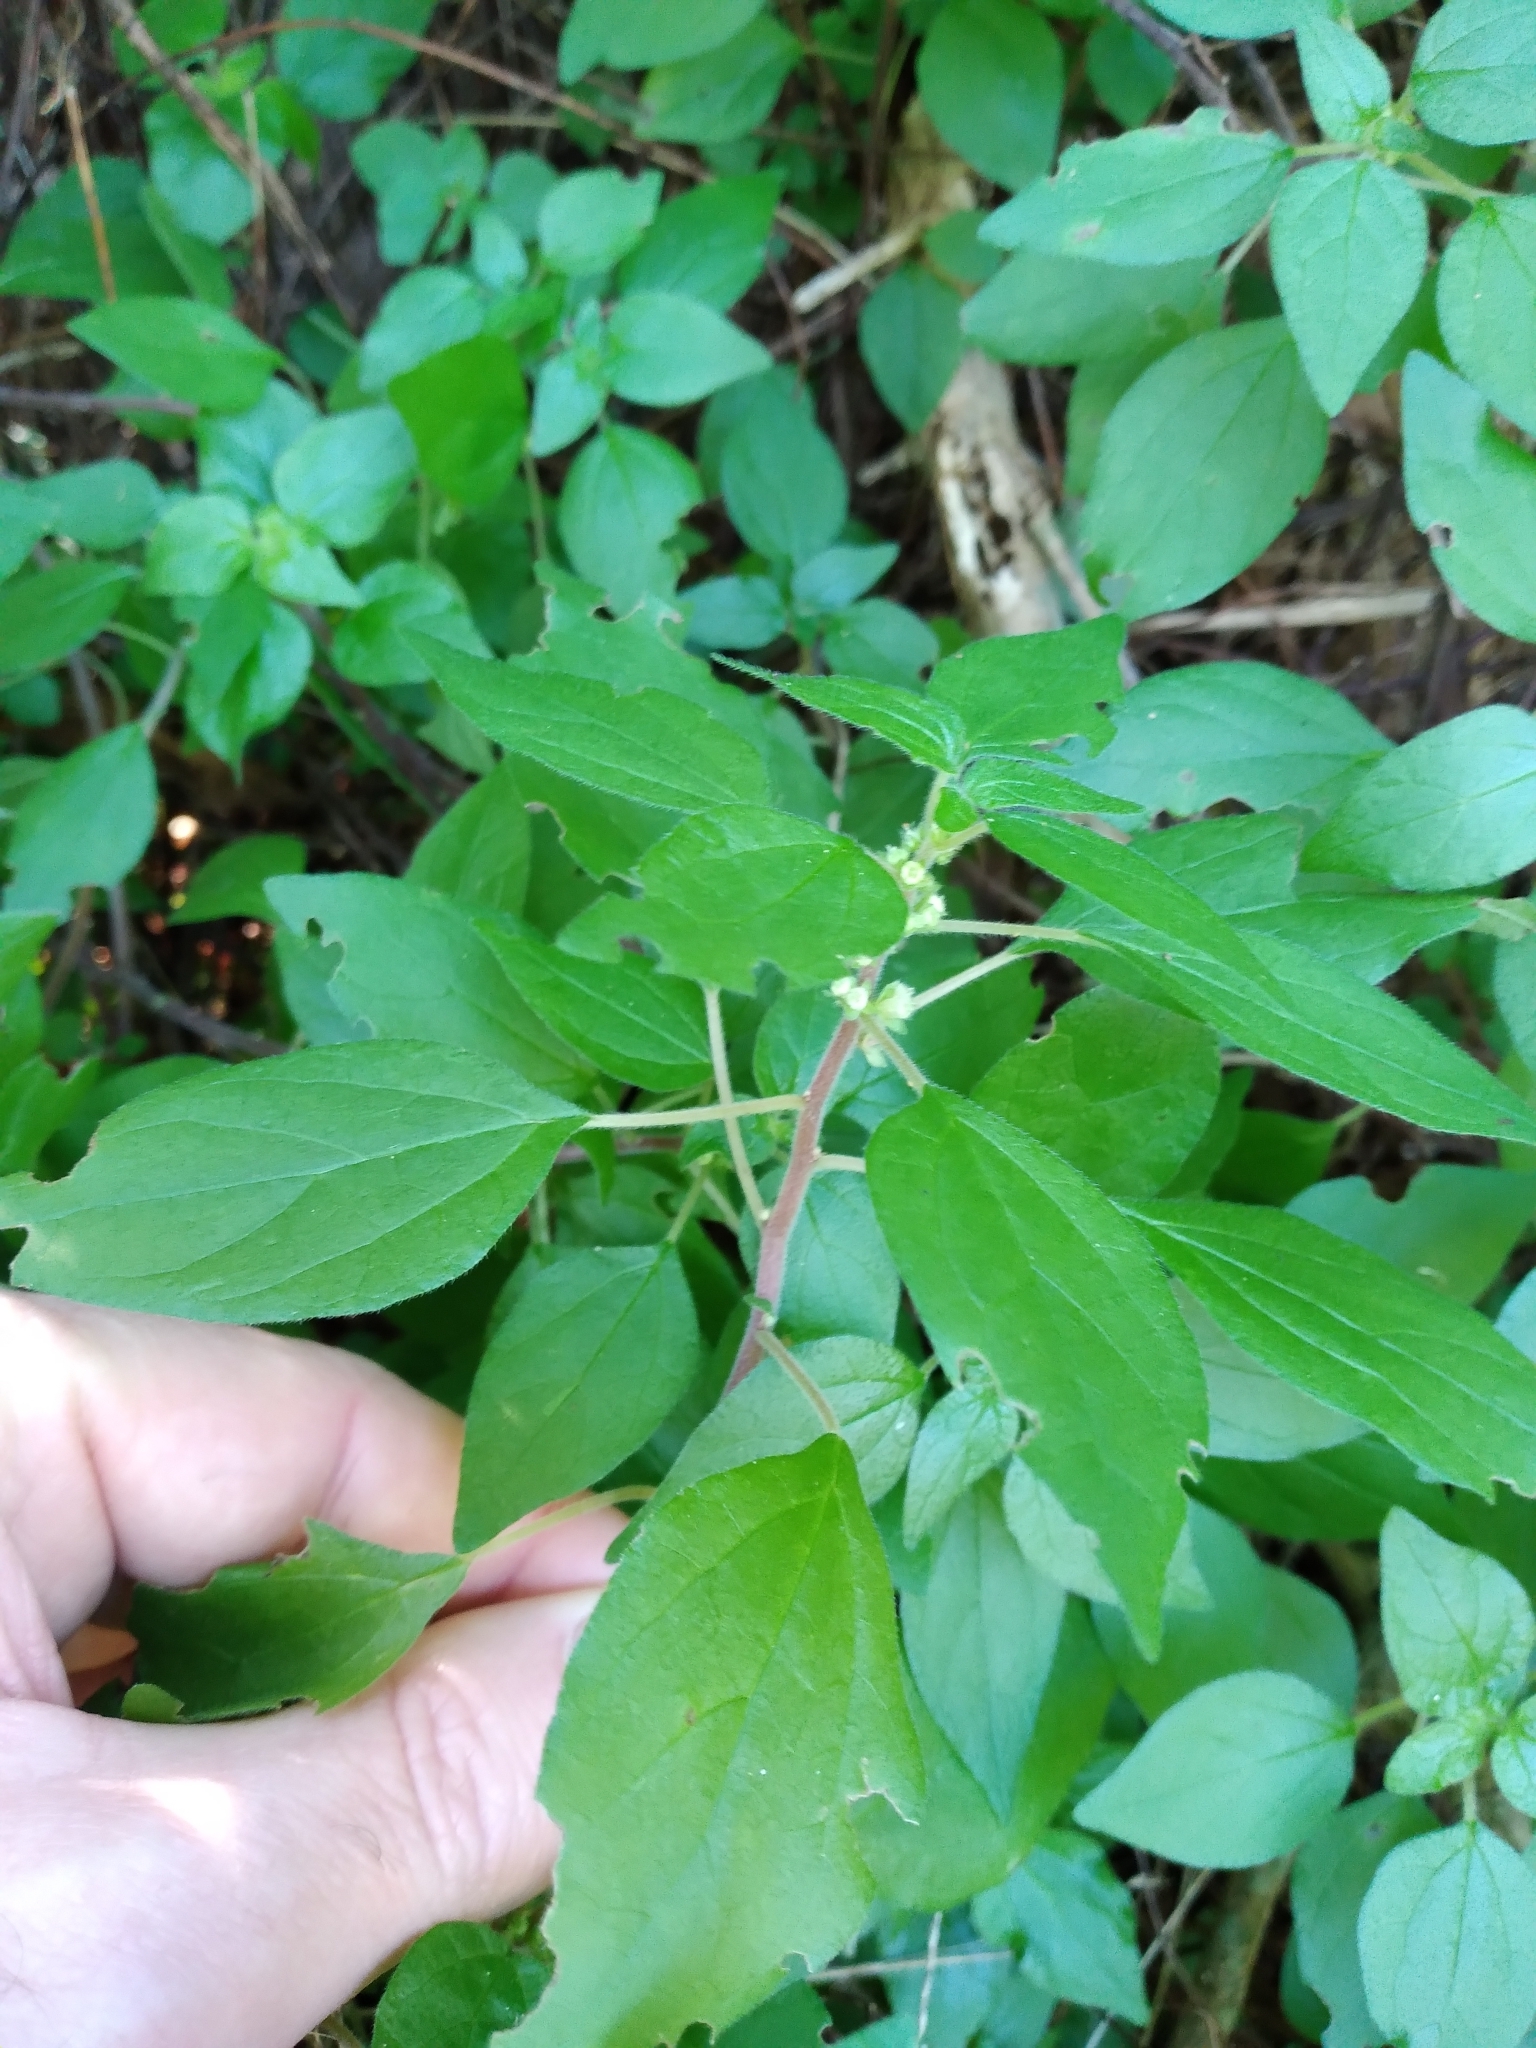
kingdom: Plantae
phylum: Tracheophyta
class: Magnoliopsida
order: Rosales
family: Urticaceae
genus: Parietaria
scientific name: Parietaria judaica
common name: Pellitory-of-the-wall
